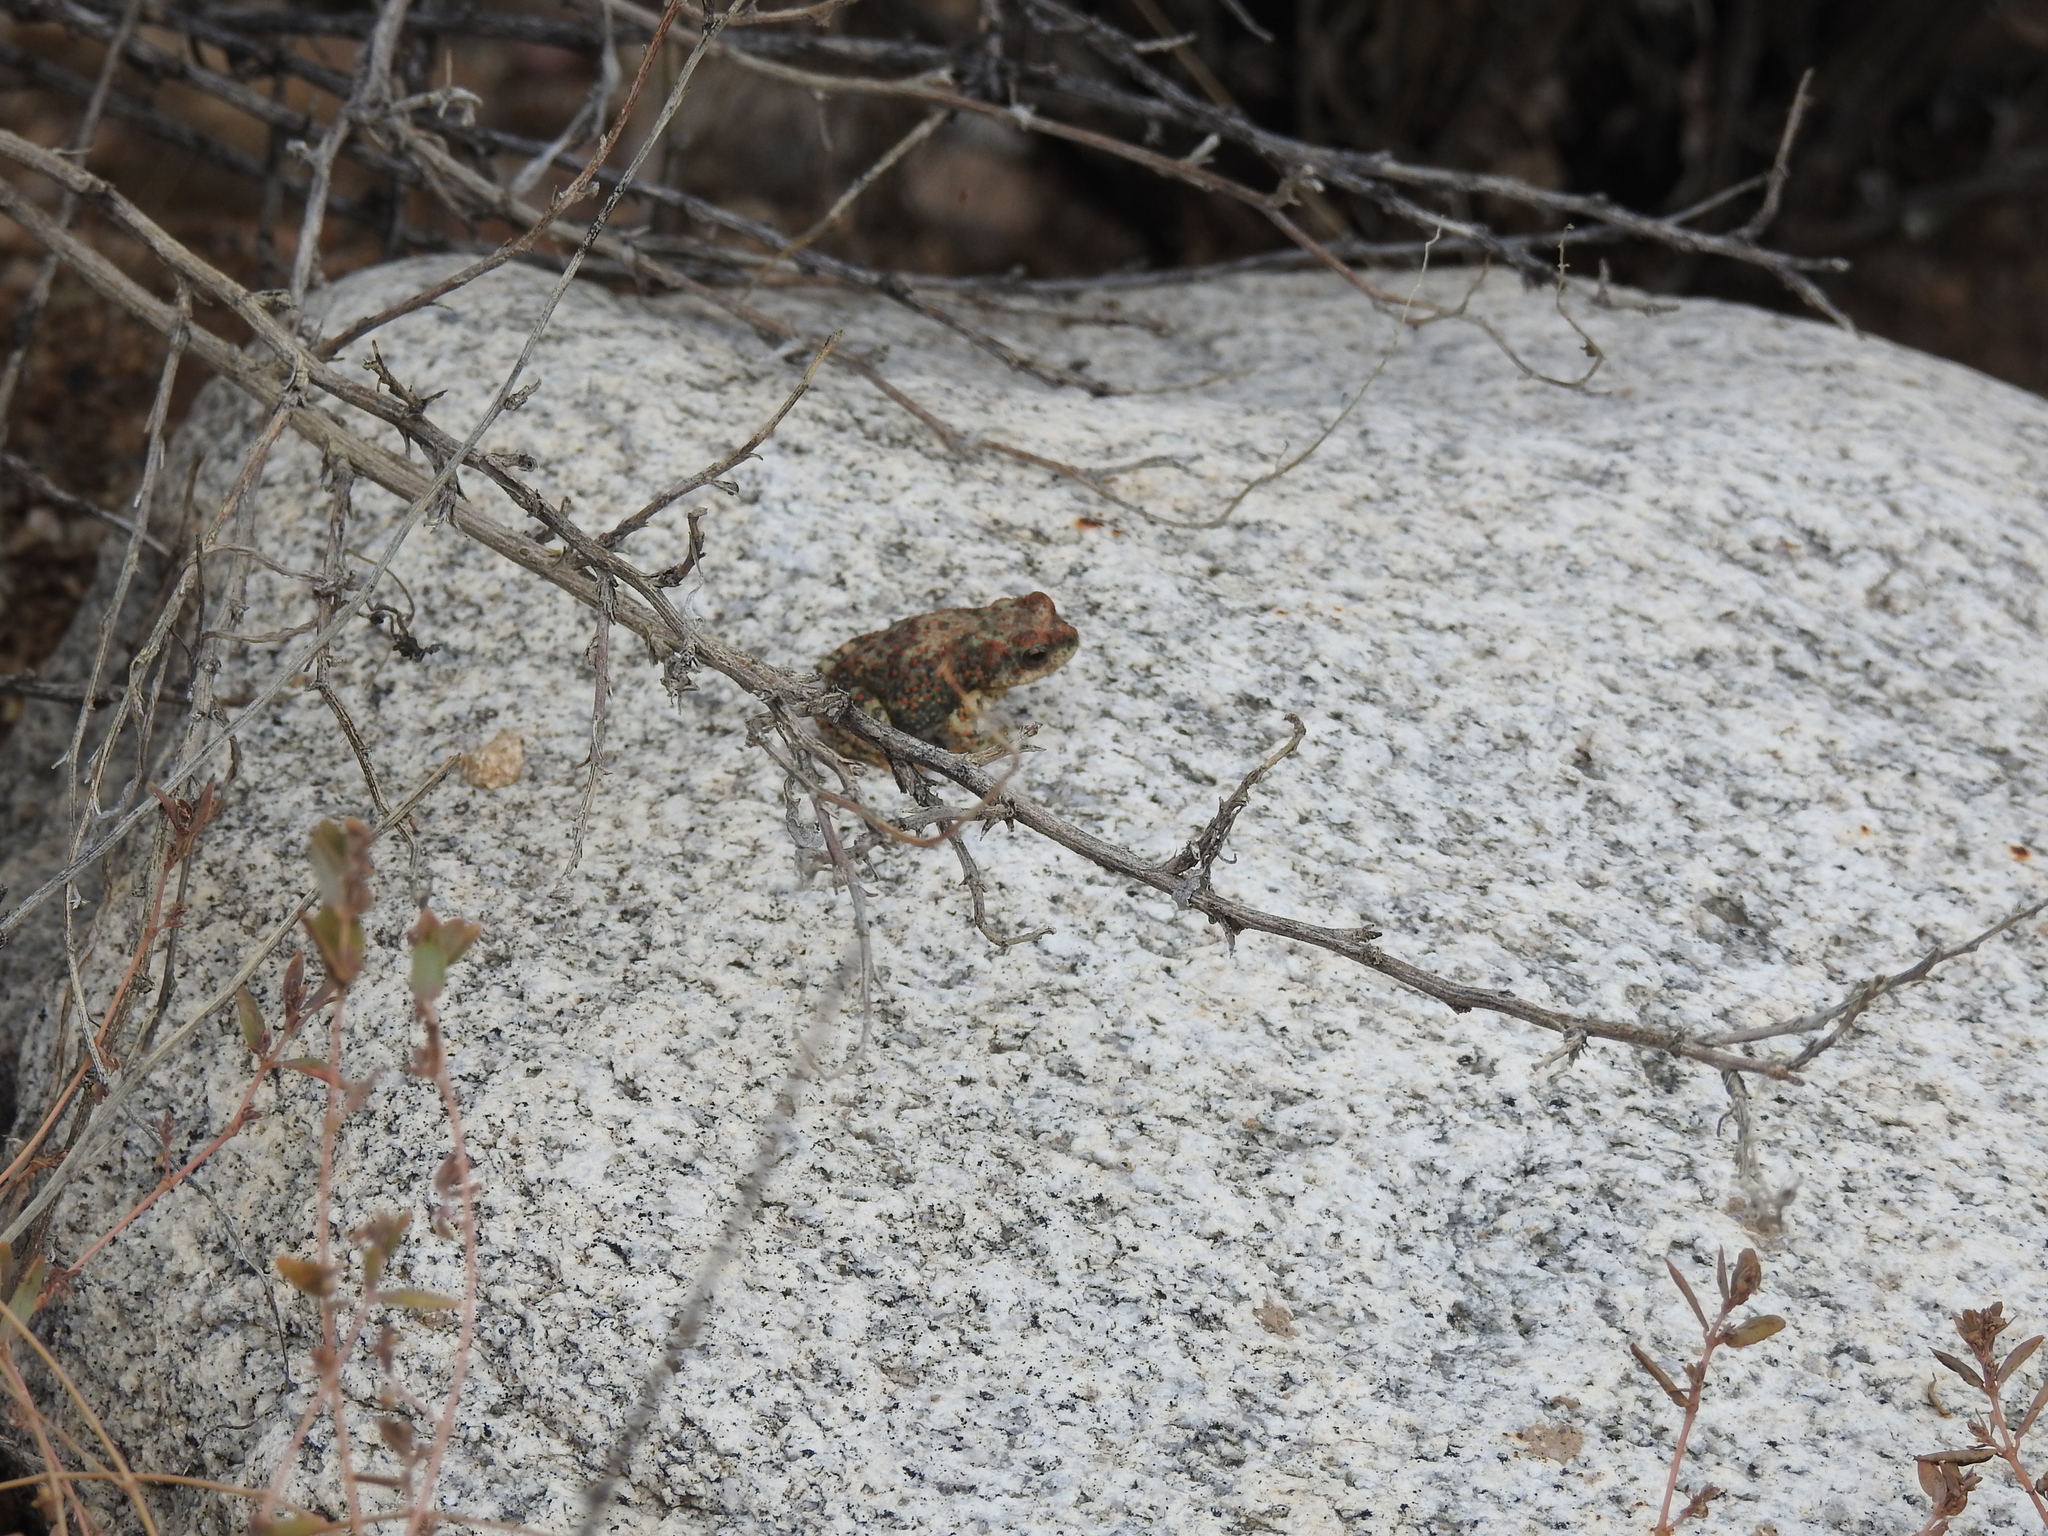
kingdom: Animalia
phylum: Chordata
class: Amphibia
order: Anura
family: Bufonidae
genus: Anaxyrus
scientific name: Anaxyrus punctatus
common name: Red-spotted toad
